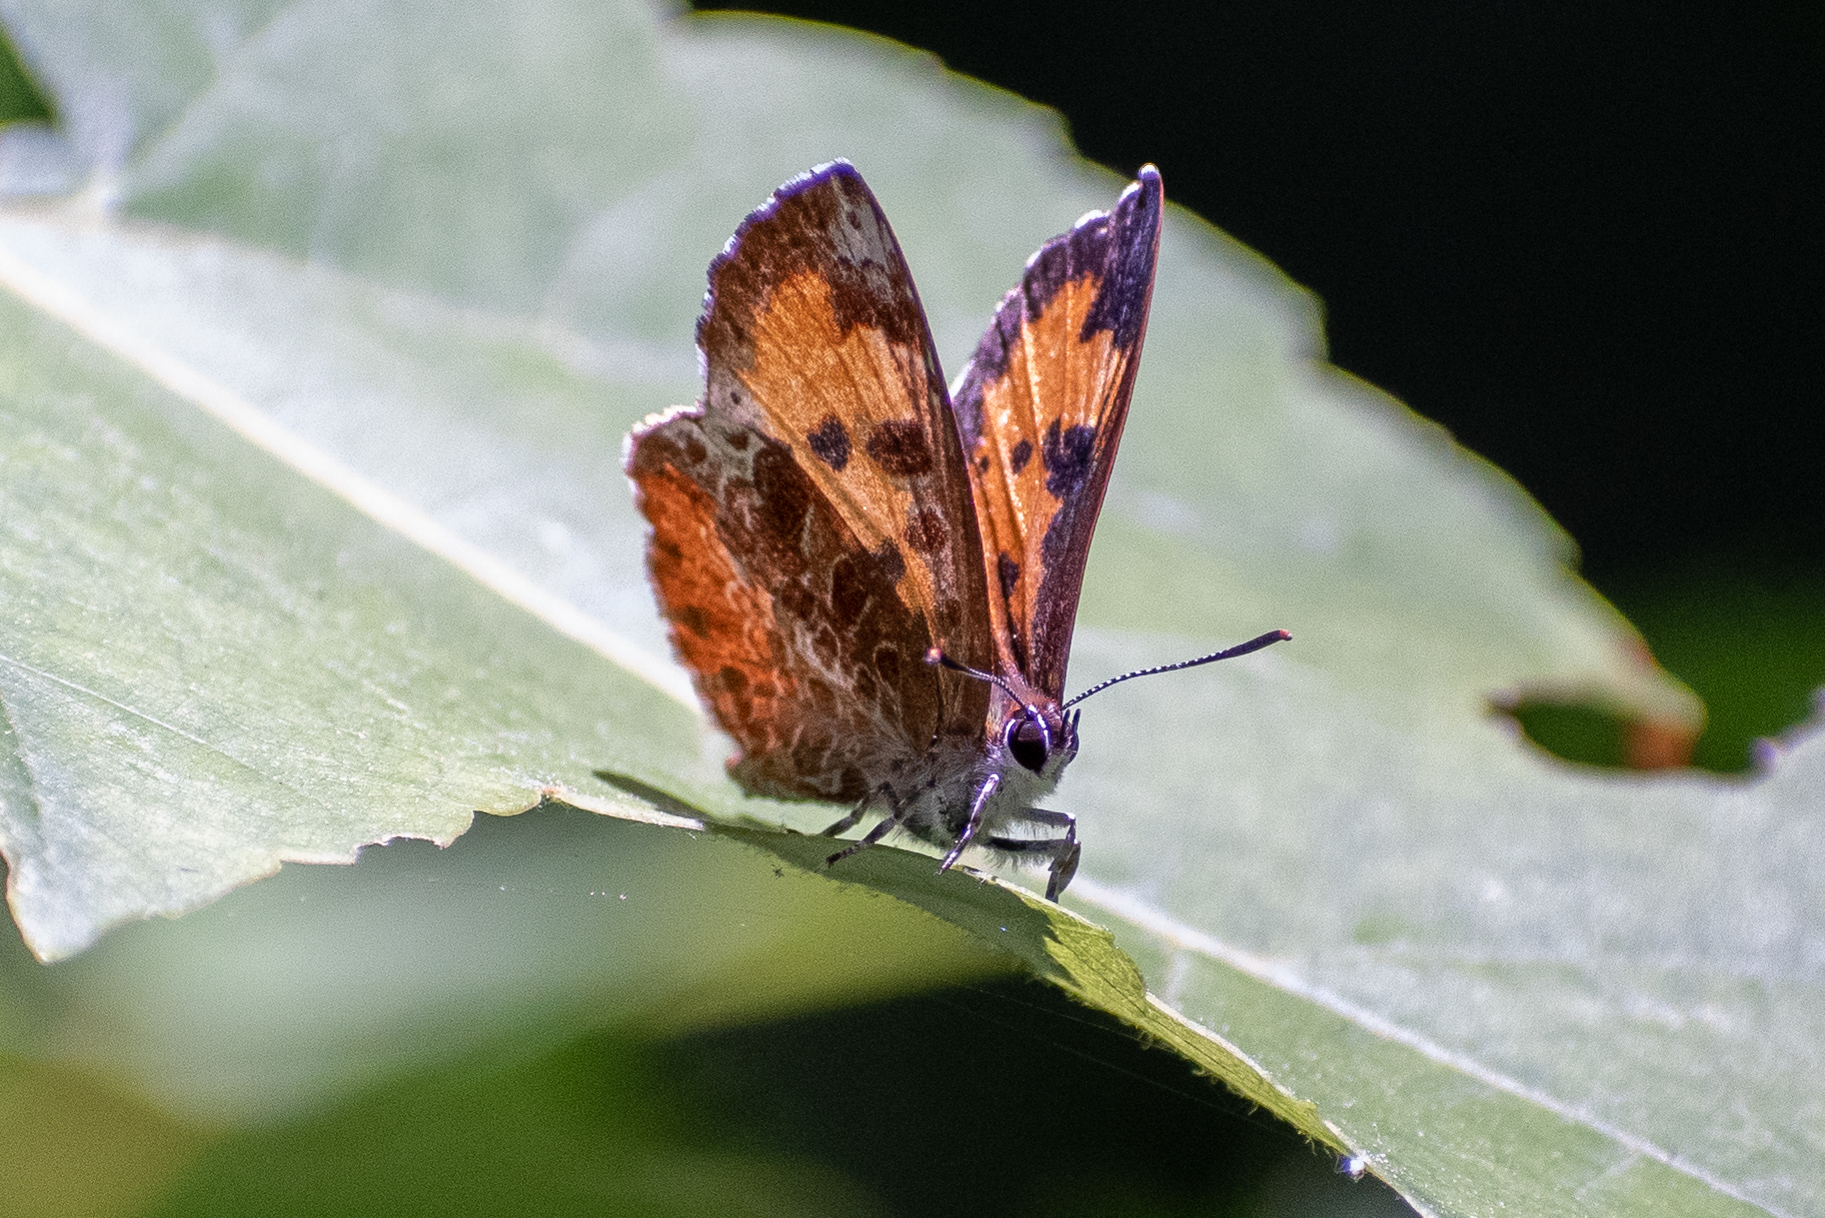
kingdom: Animalia
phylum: Arthropoda
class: Insecta
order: Lepidoptera
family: Lycaenidae
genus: Feniseca
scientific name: Feniseca tarquinius
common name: Harvester
